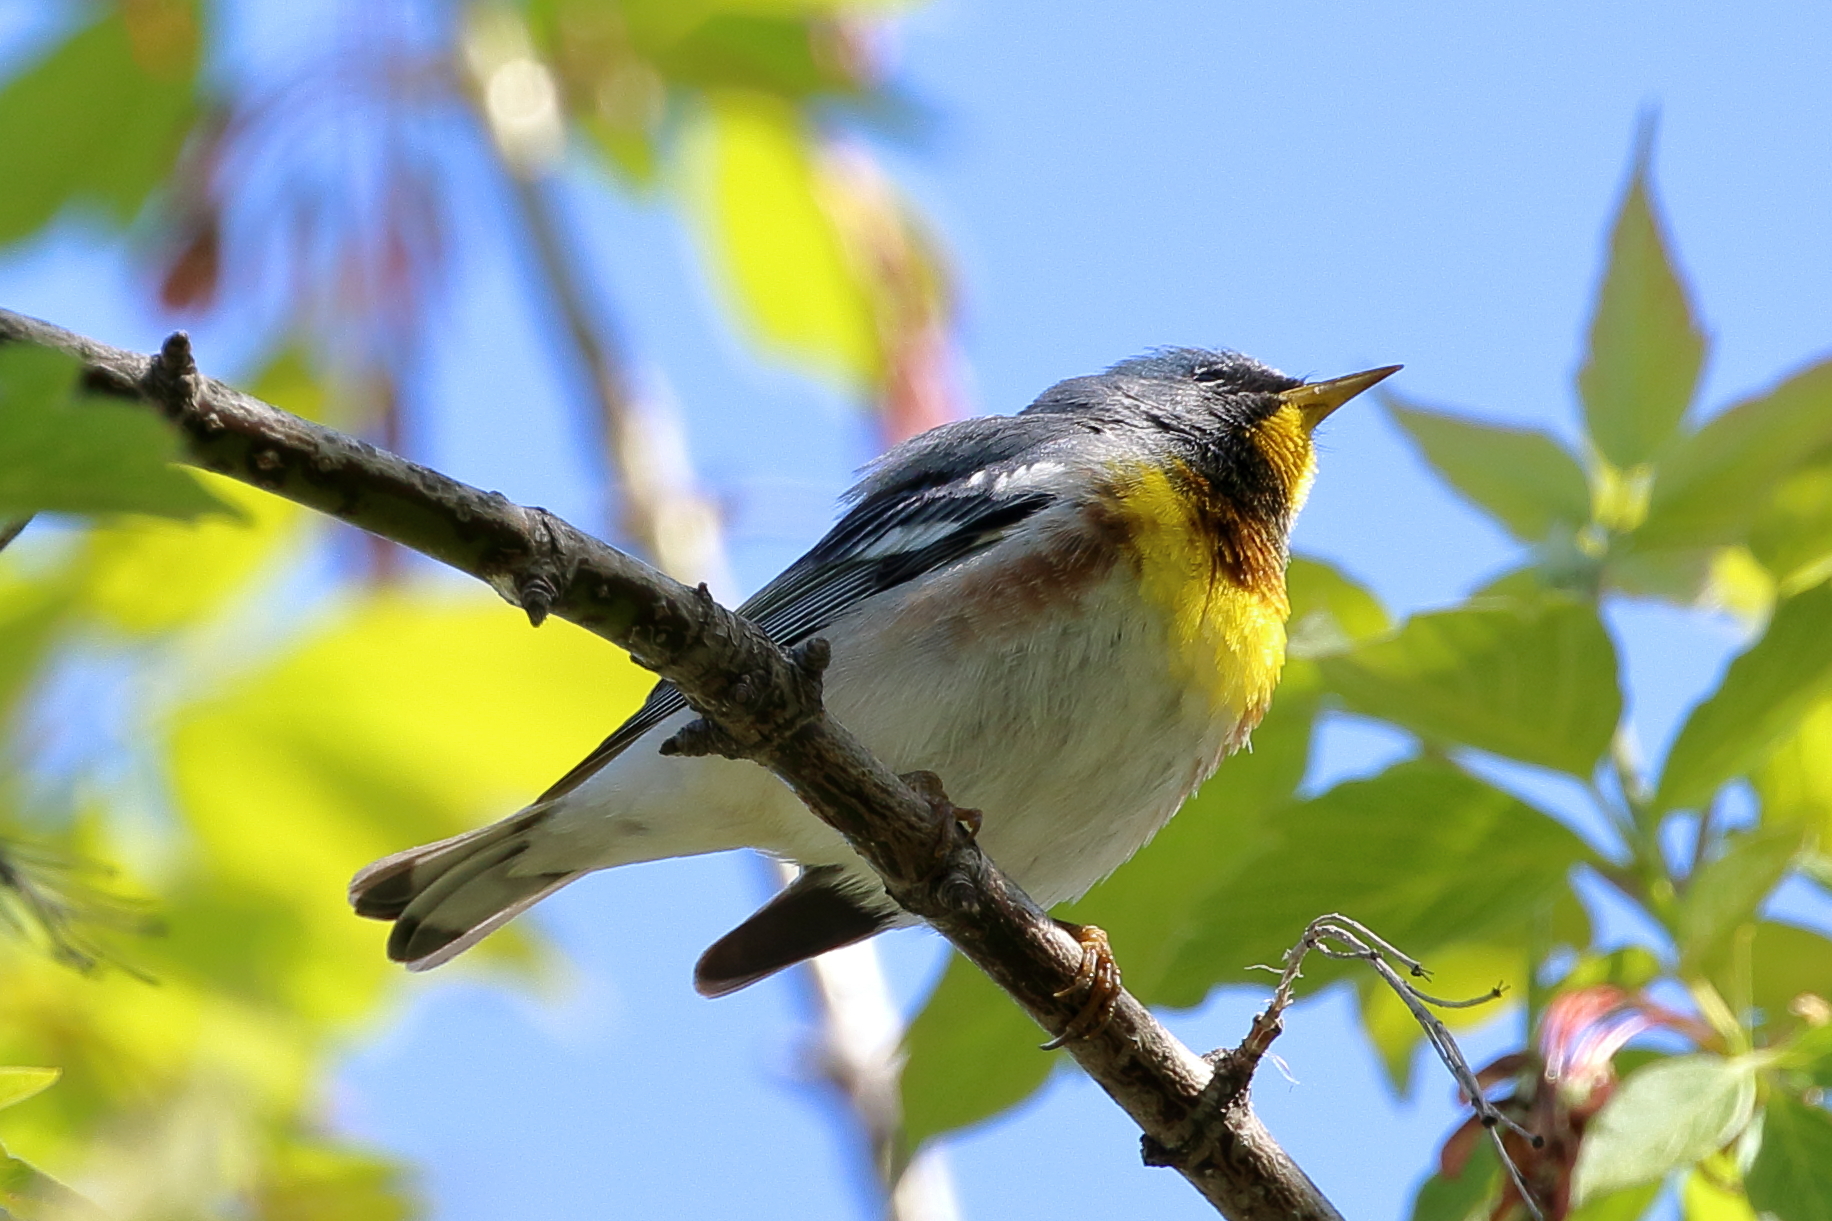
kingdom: Animalia
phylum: Chordata
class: Aves
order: Passeriformes
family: Parulidae
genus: Setophaga
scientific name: Setophaga americana
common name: Northern parula
